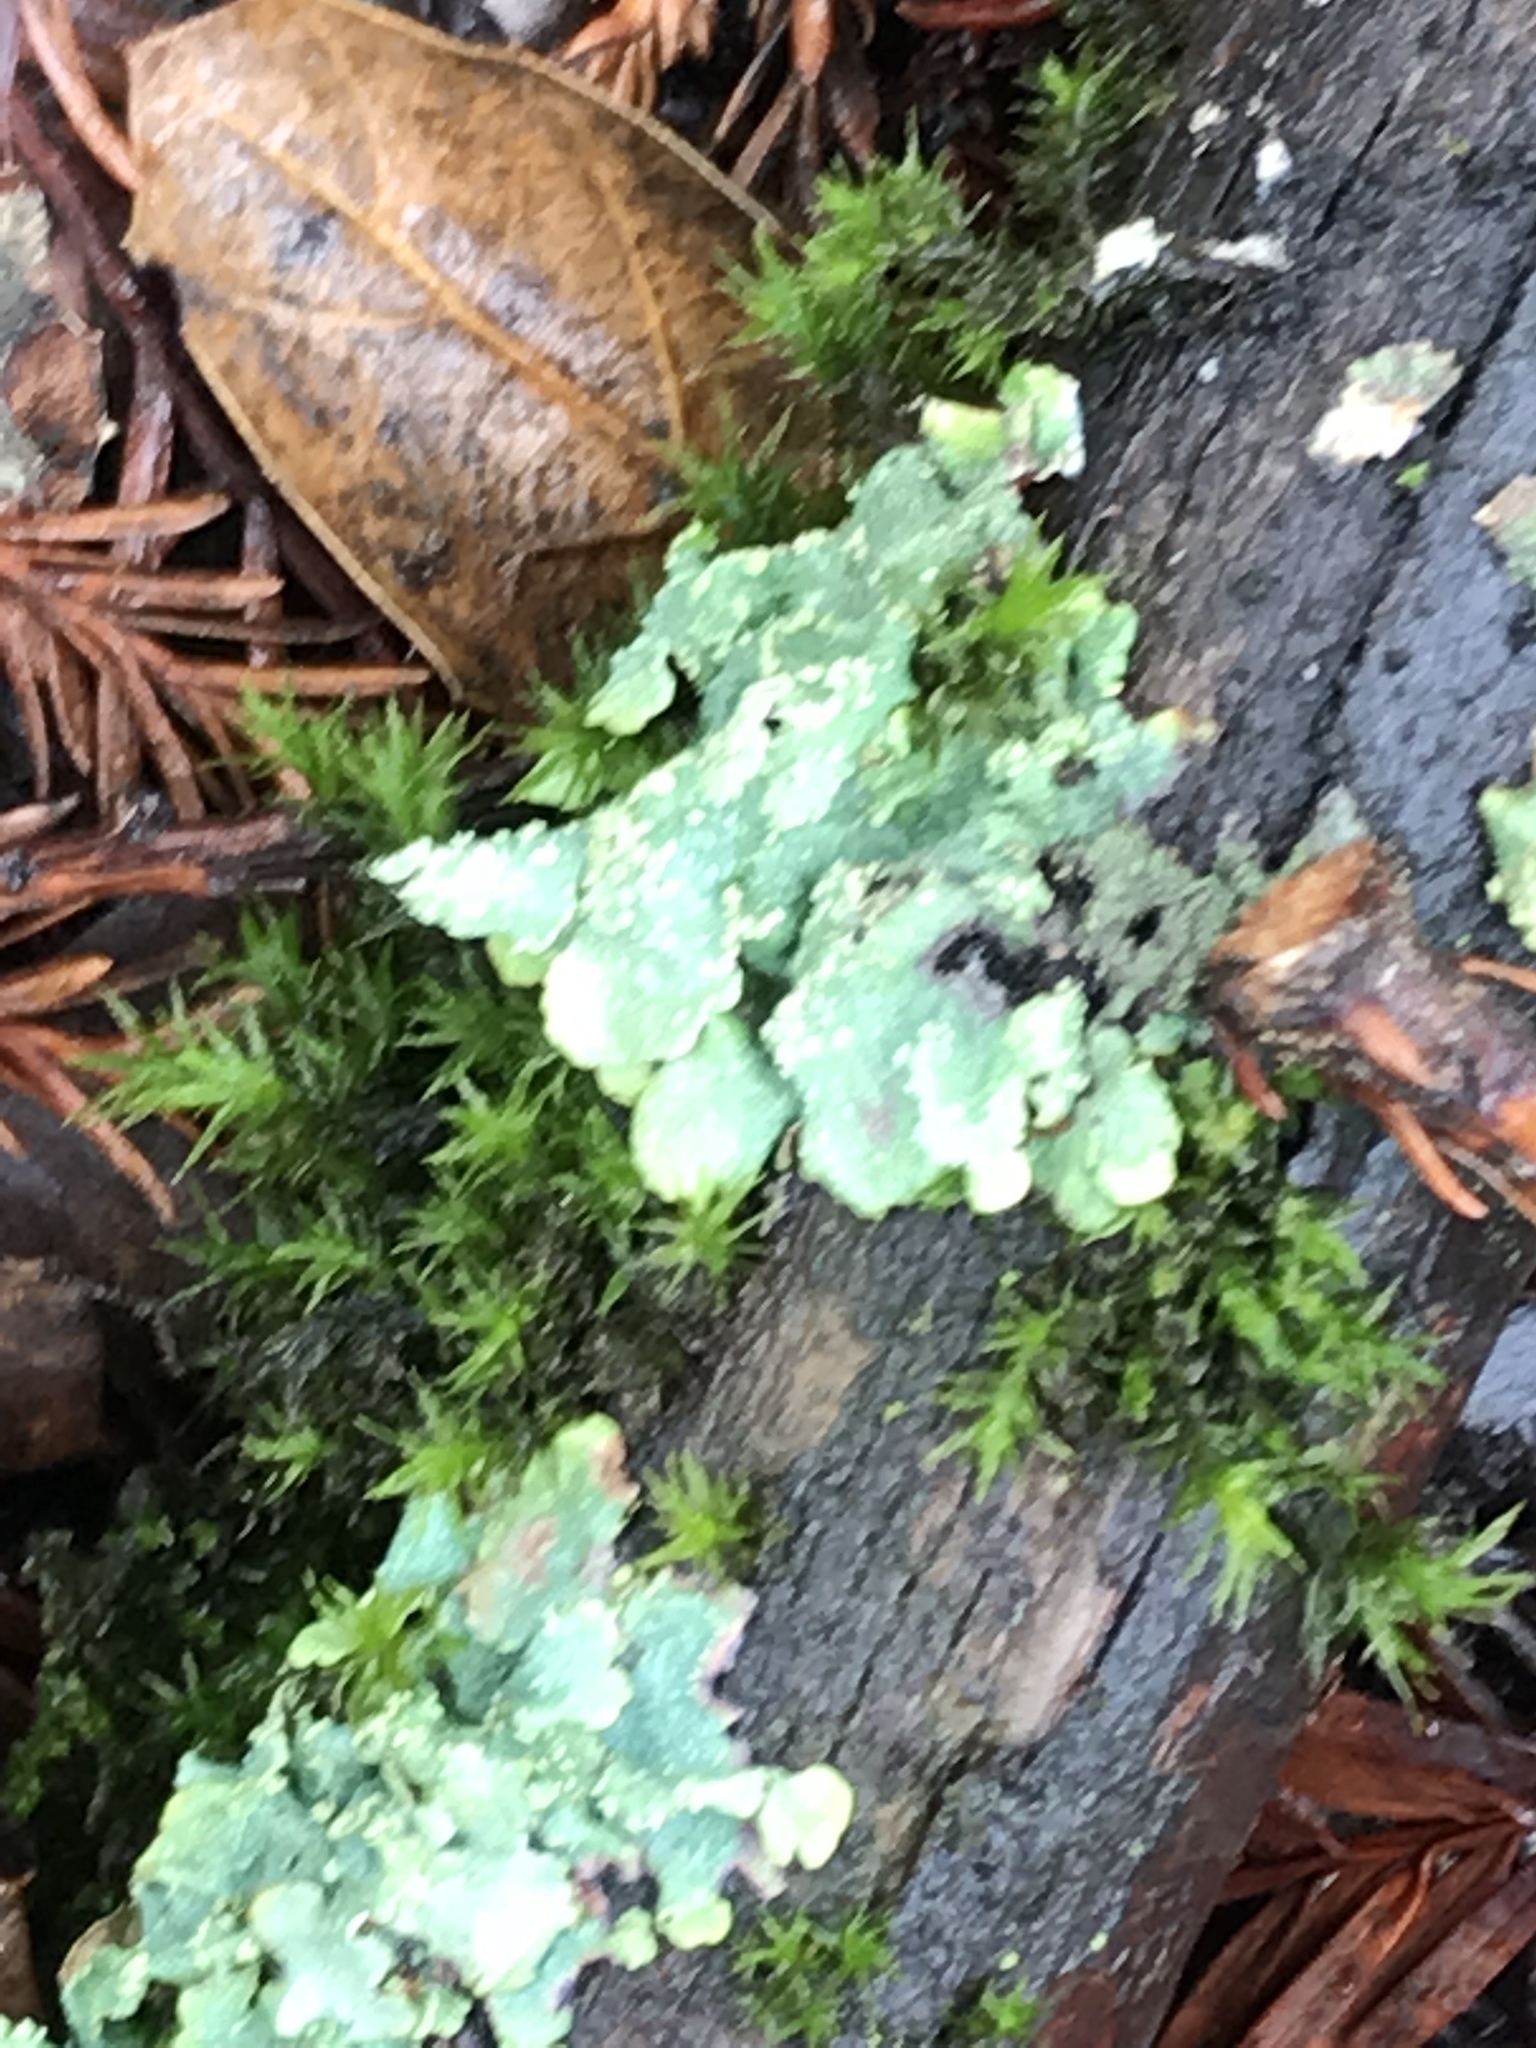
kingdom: Fungi
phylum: Ascomycota
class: Lecanoromycetes
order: Lecanorales
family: Parmeliaceae
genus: Flavopunctelia
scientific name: Flavopunctelia flaventior
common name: Speckled greenshield
